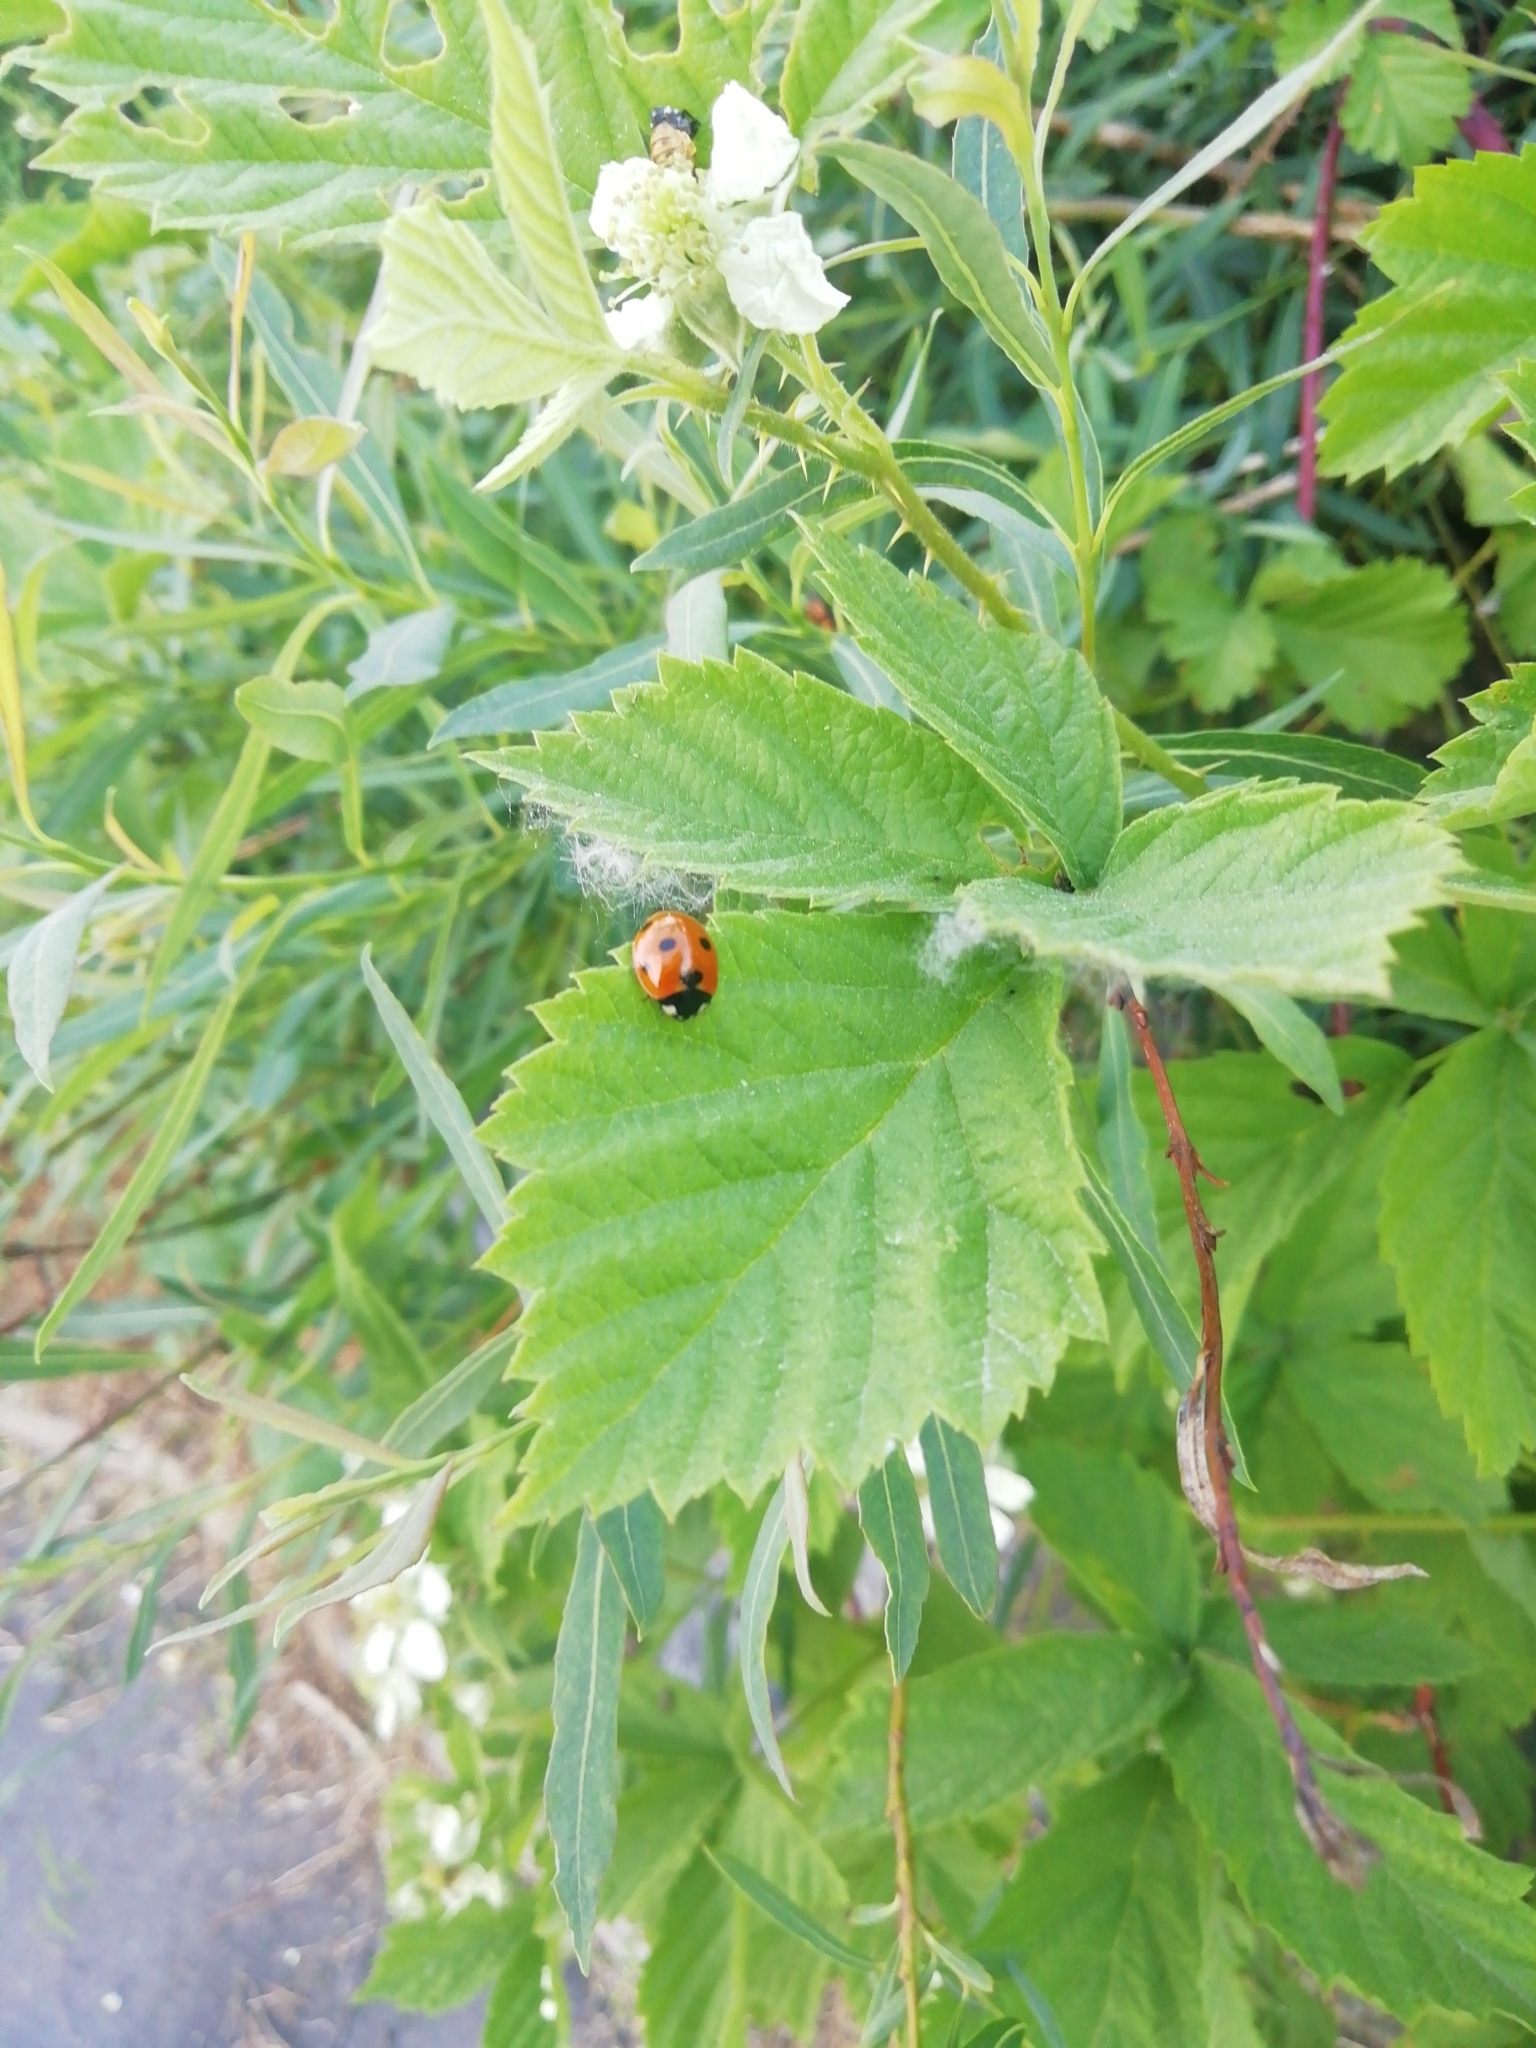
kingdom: Animalia
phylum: Arthropoda
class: Insecta
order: Coleoptera
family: Coccinellidae
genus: Coccinella
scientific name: Coccinella septempunctata
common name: Sevenspotted lady beetle
